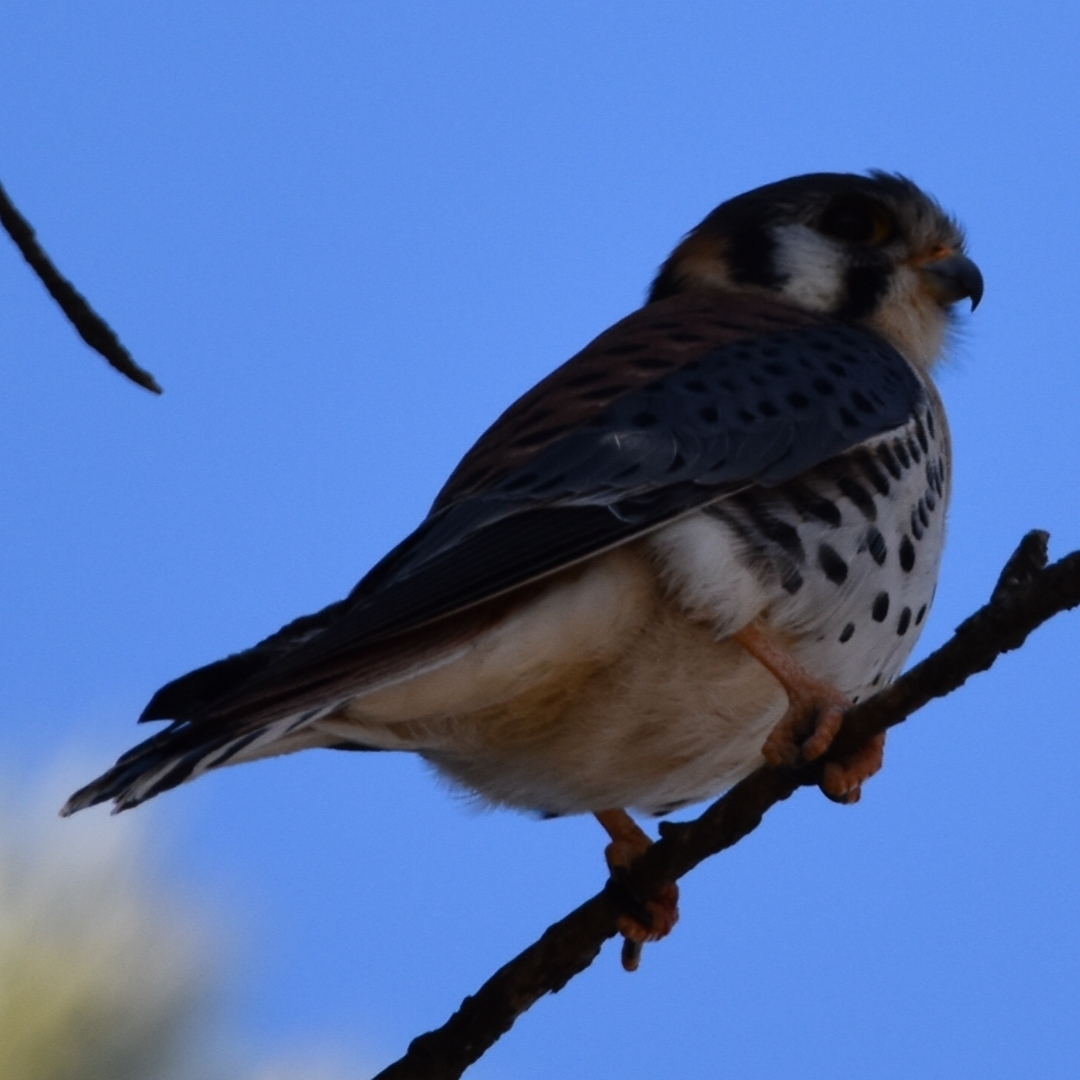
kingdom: Animalia
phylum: Chordata
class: Aves
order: Falconiformes
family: Falconidae
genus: Falco
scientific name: Falco sparverius
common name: American kestrel
